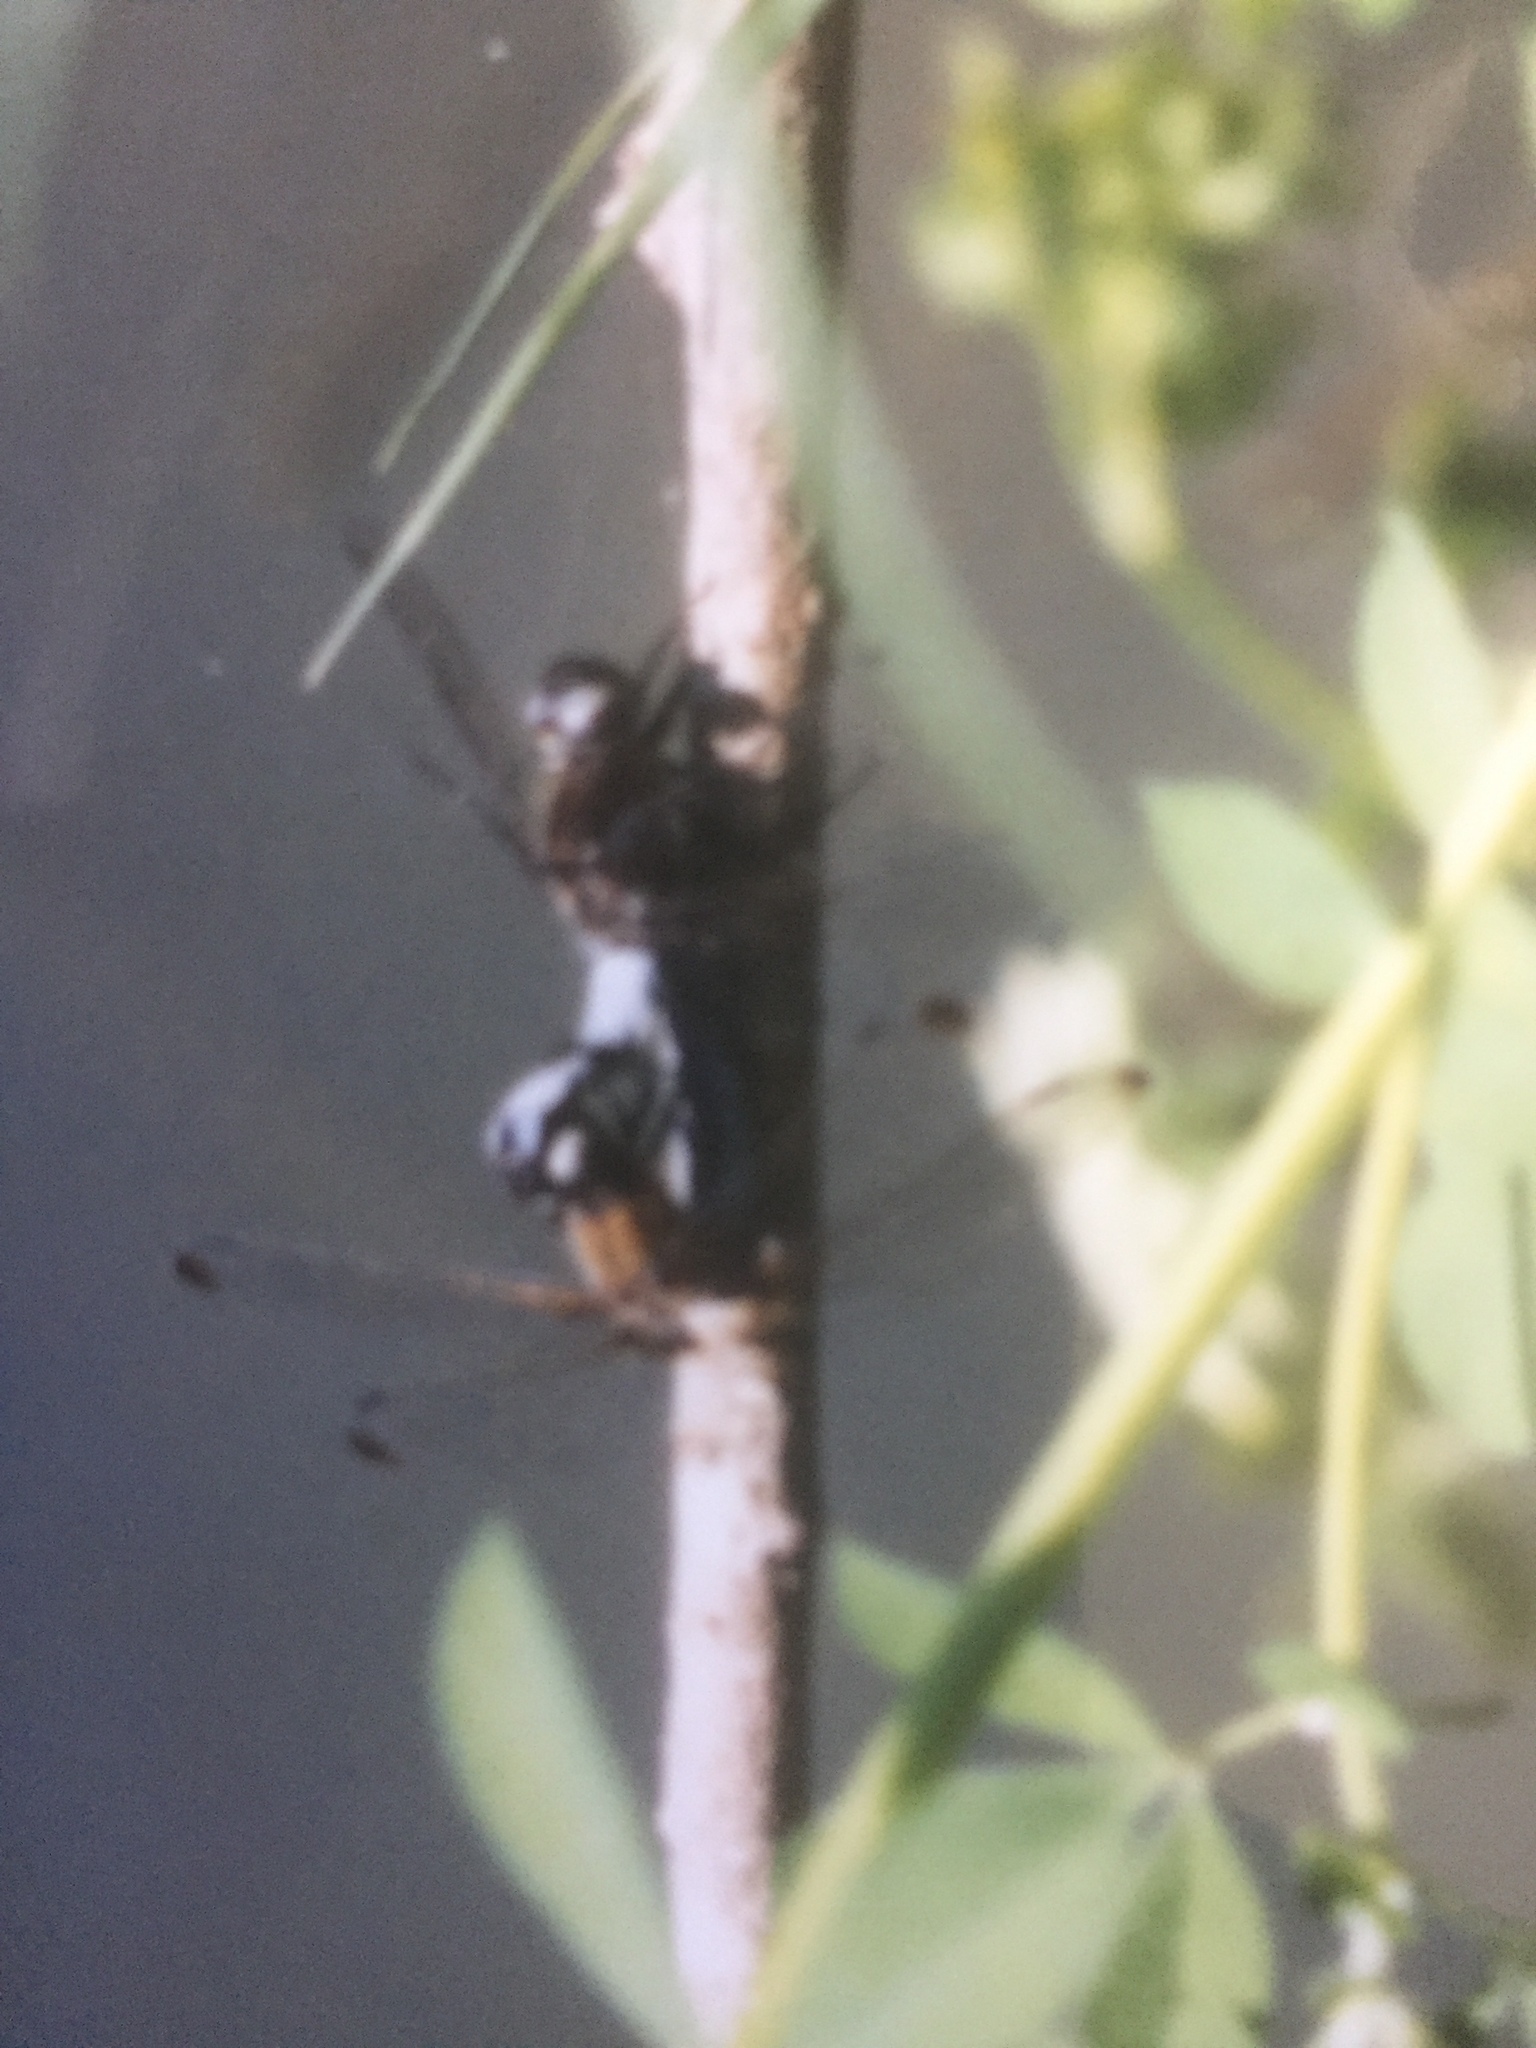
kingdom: Animalia
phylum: Arthropoda
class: Insecta
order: Odonata
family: Libellulidae
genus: Libellula
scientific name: Libellula fulva
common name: Blue chaser
